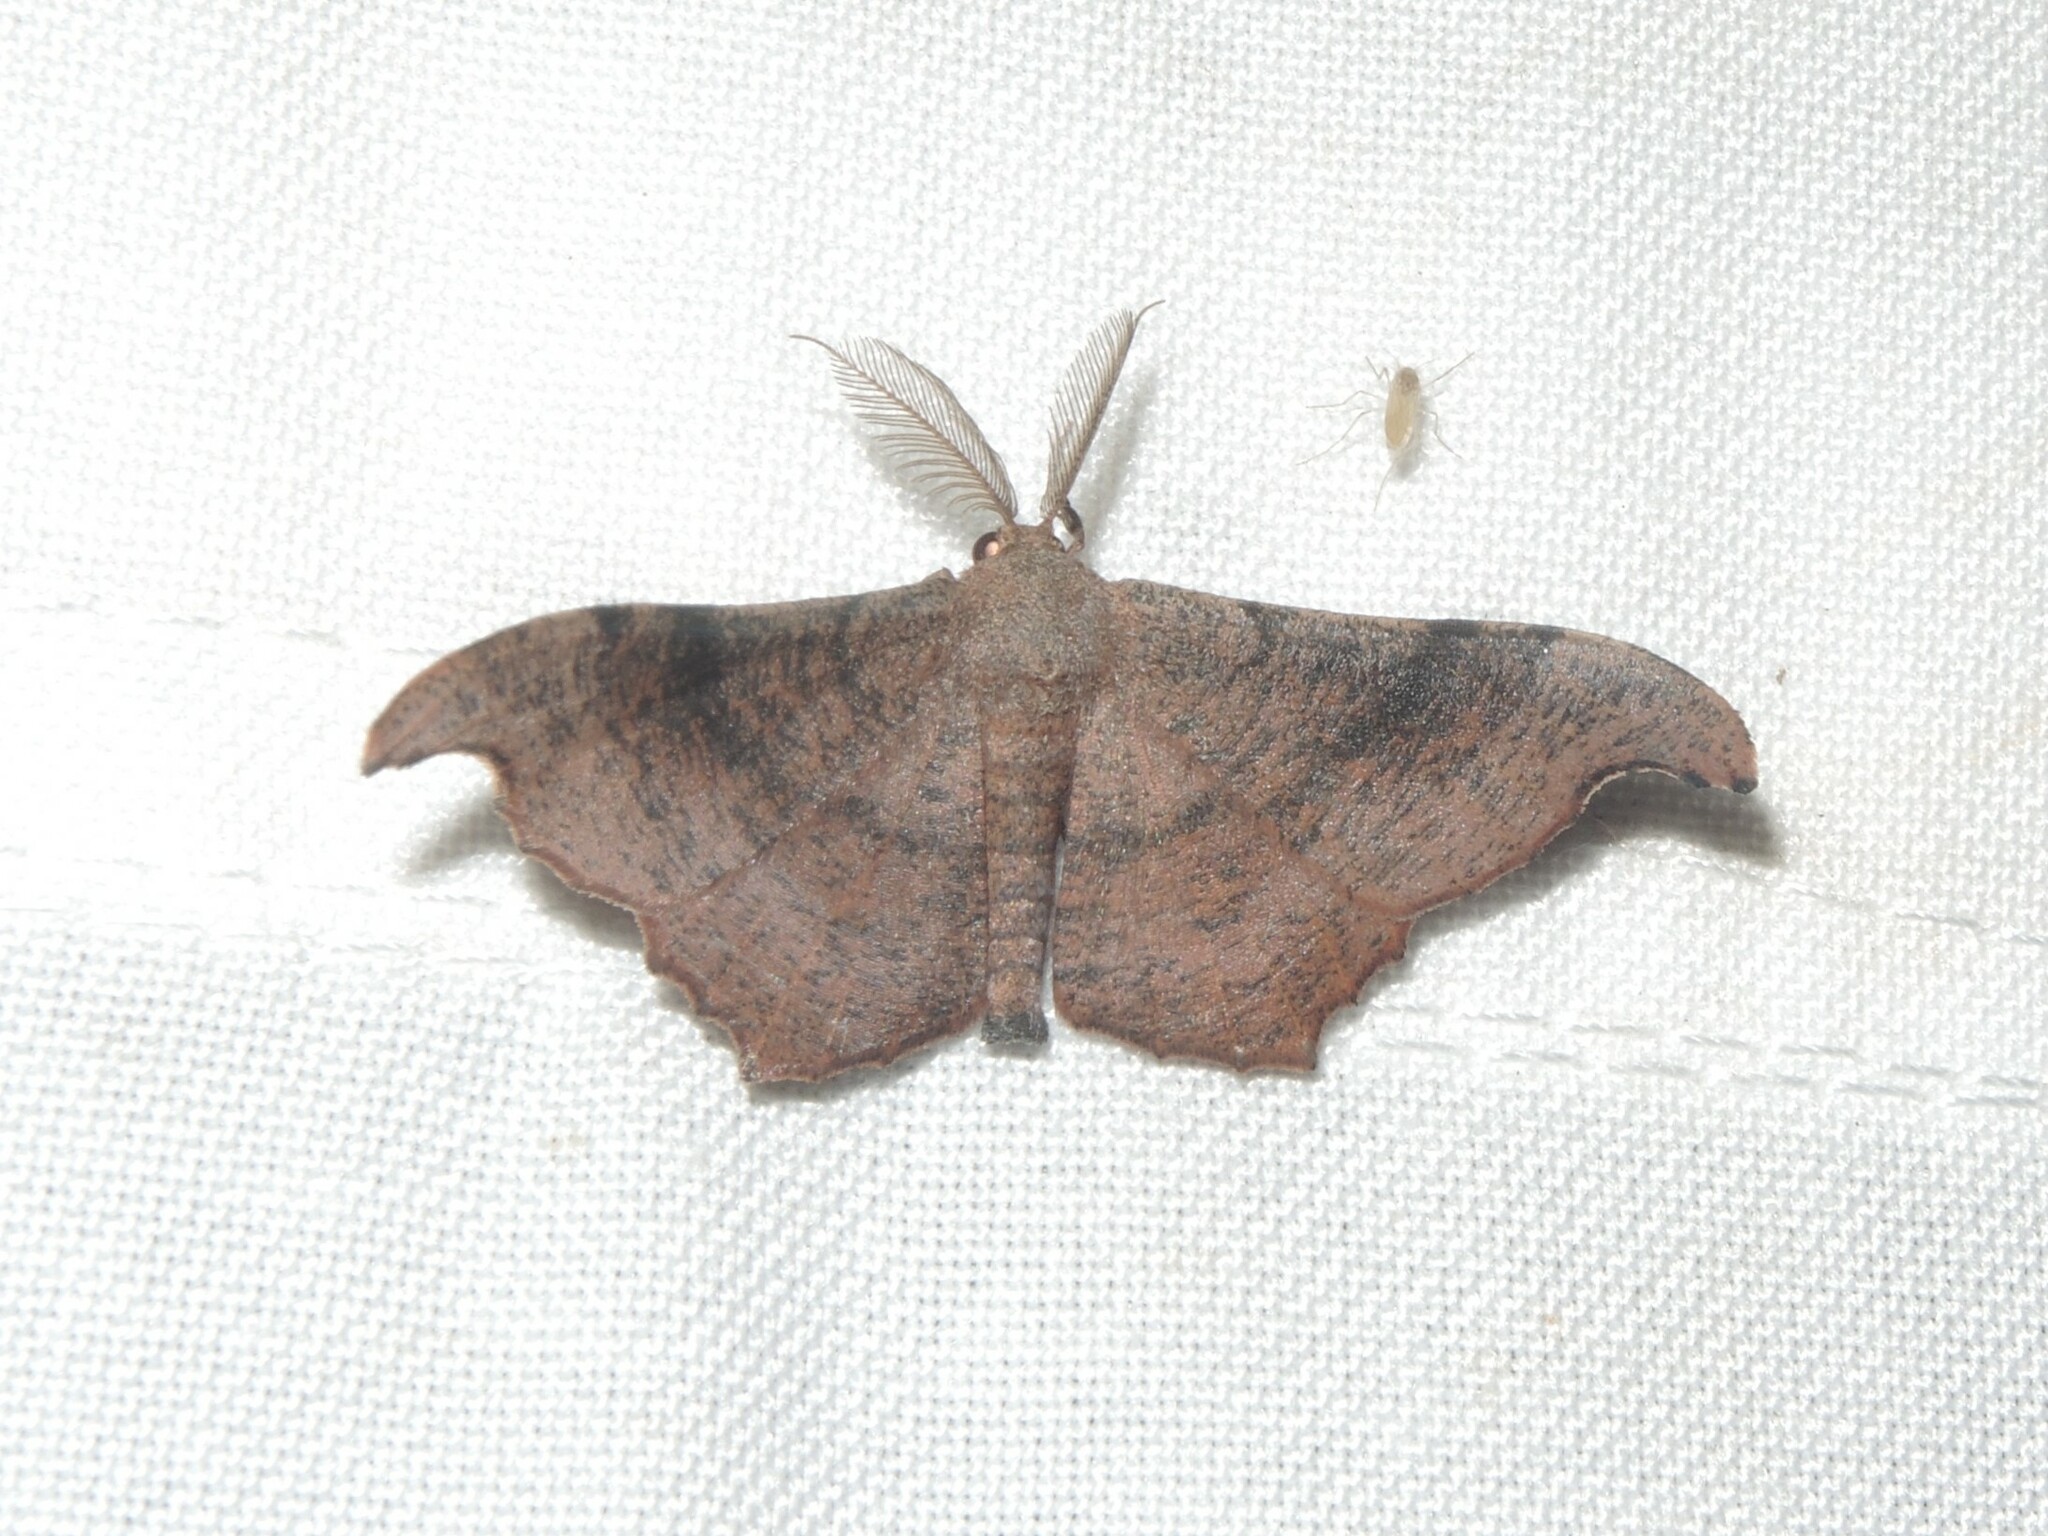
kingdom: Animalia
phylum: Arthropoda
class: Insecta
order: Lepidoptera
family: Geometridae
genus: Hyposidra
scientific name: Hyposidra talaca
